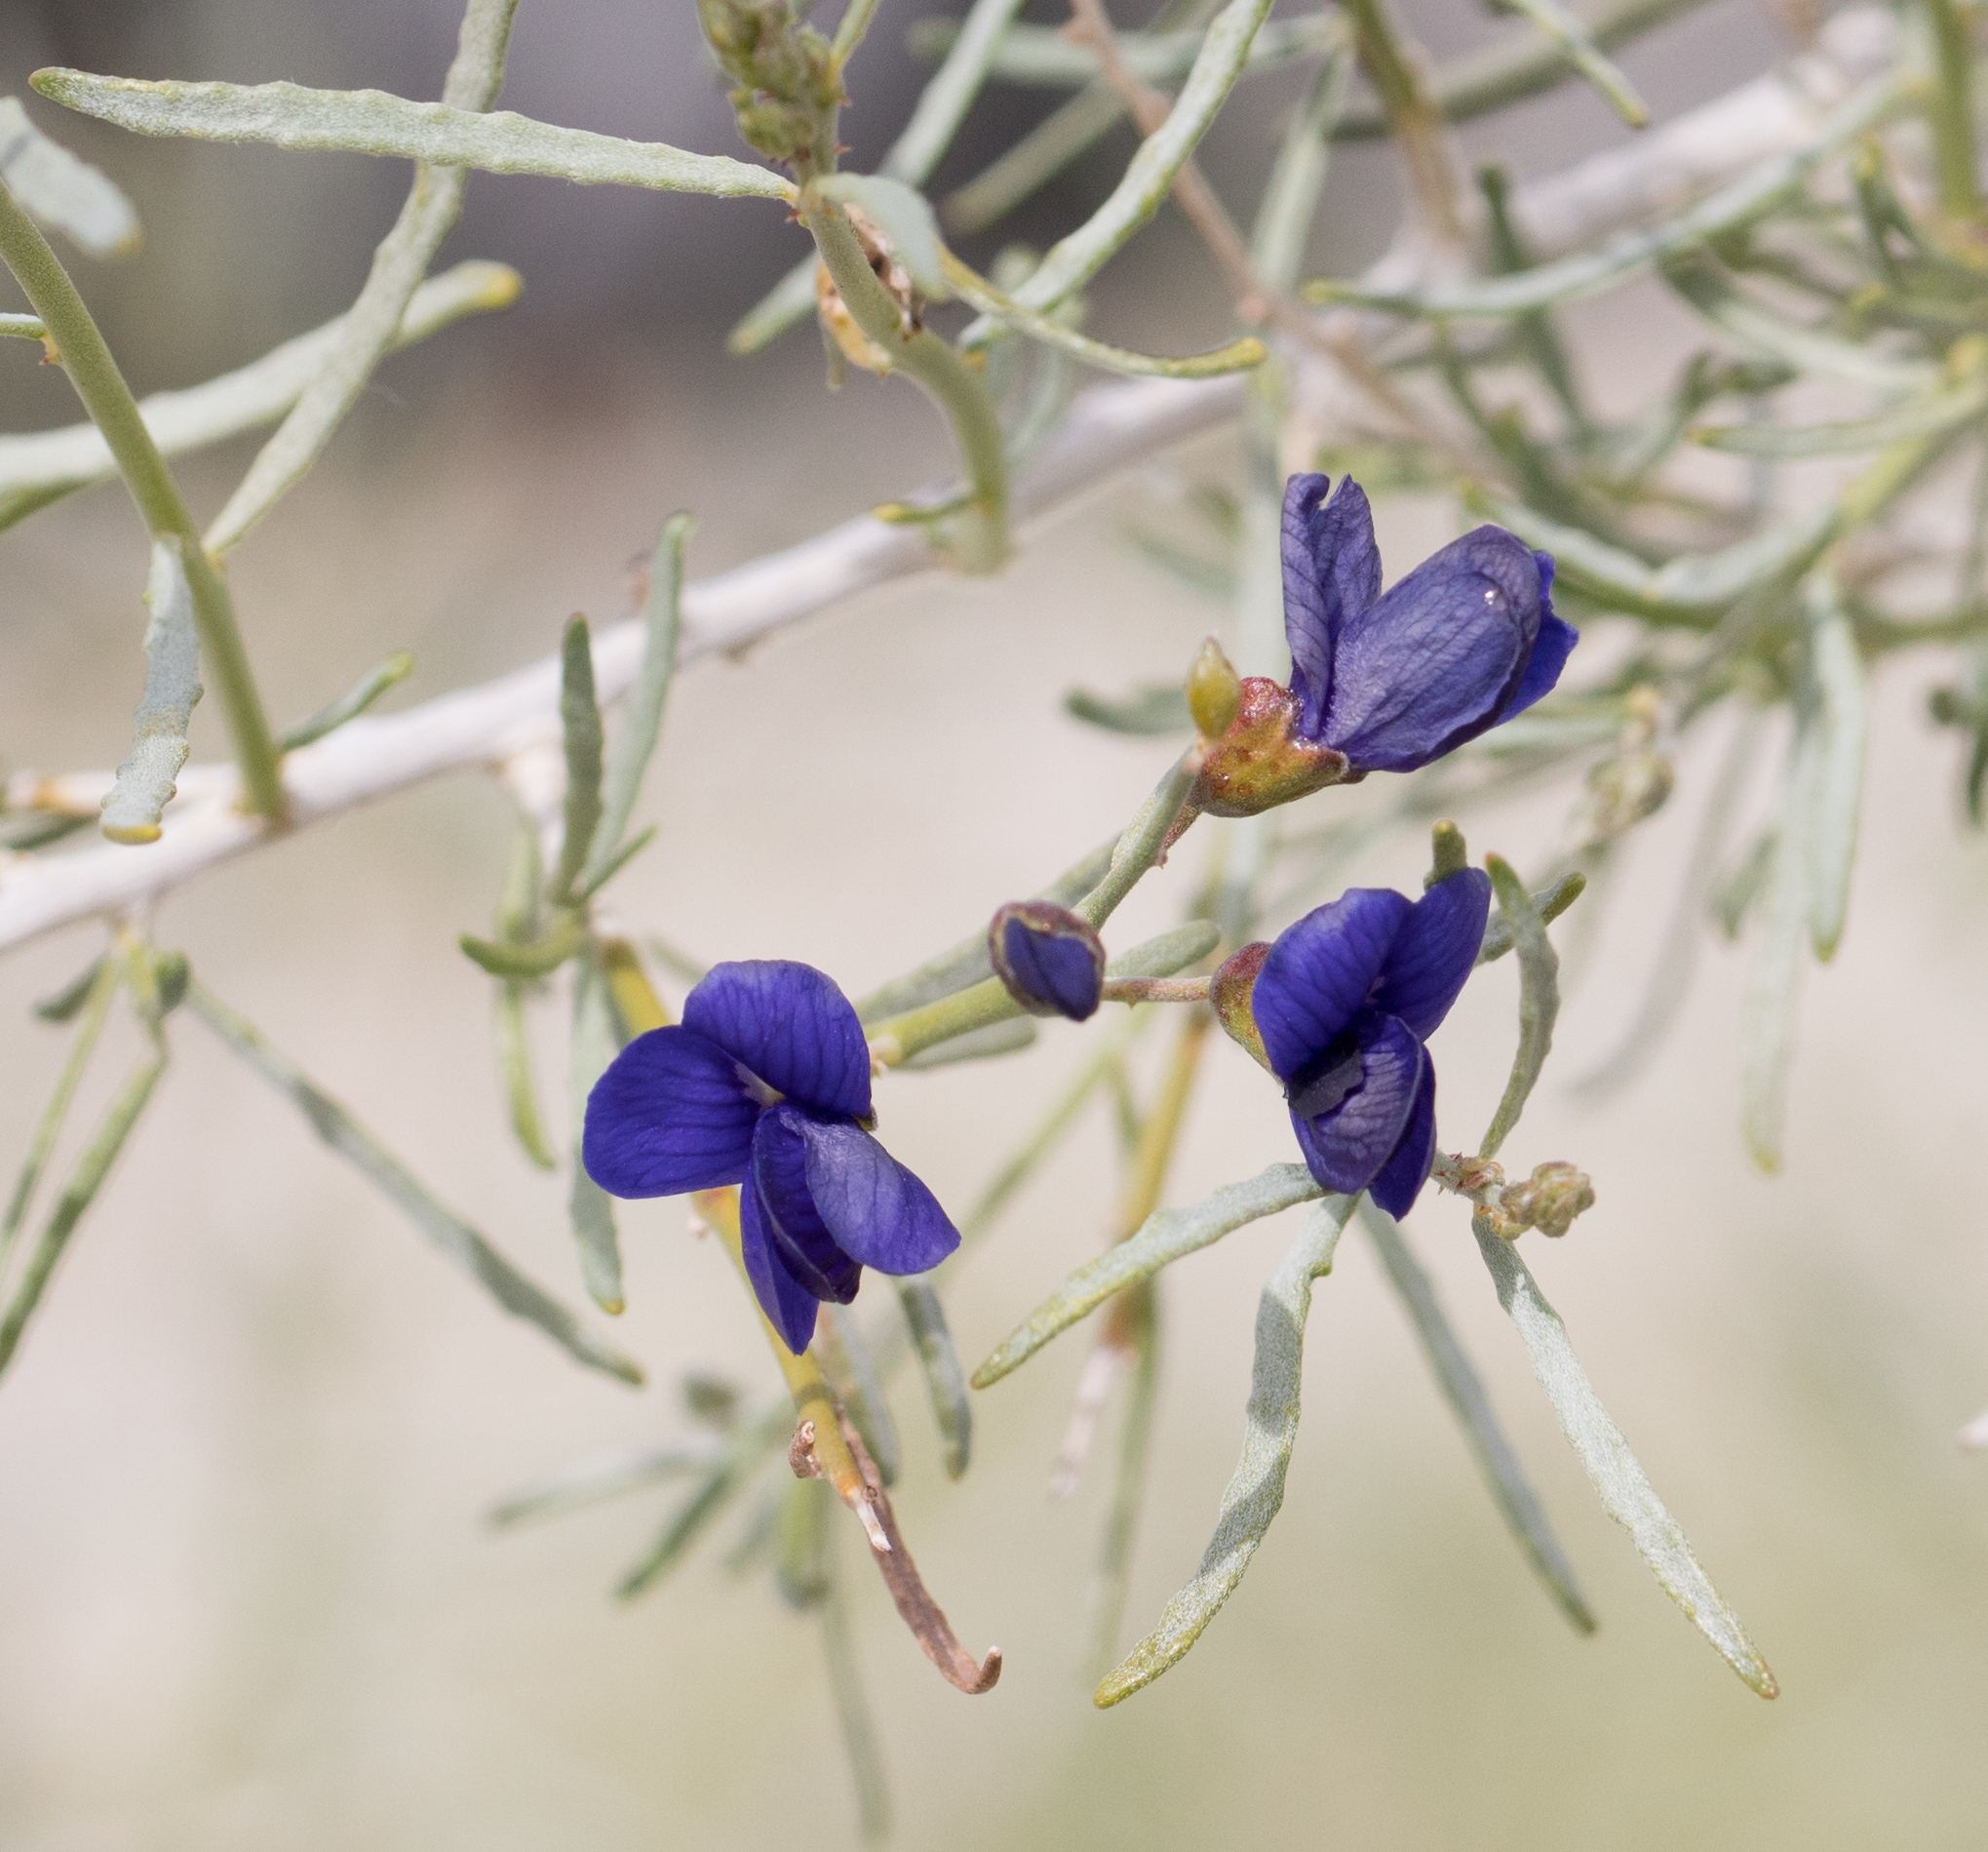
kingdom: Plantae
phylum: Tracheophyta
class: Magnoliopsida
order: Fabales
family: Fabaceae
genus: Psorothamnus
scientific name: Psorothamnus schottii
